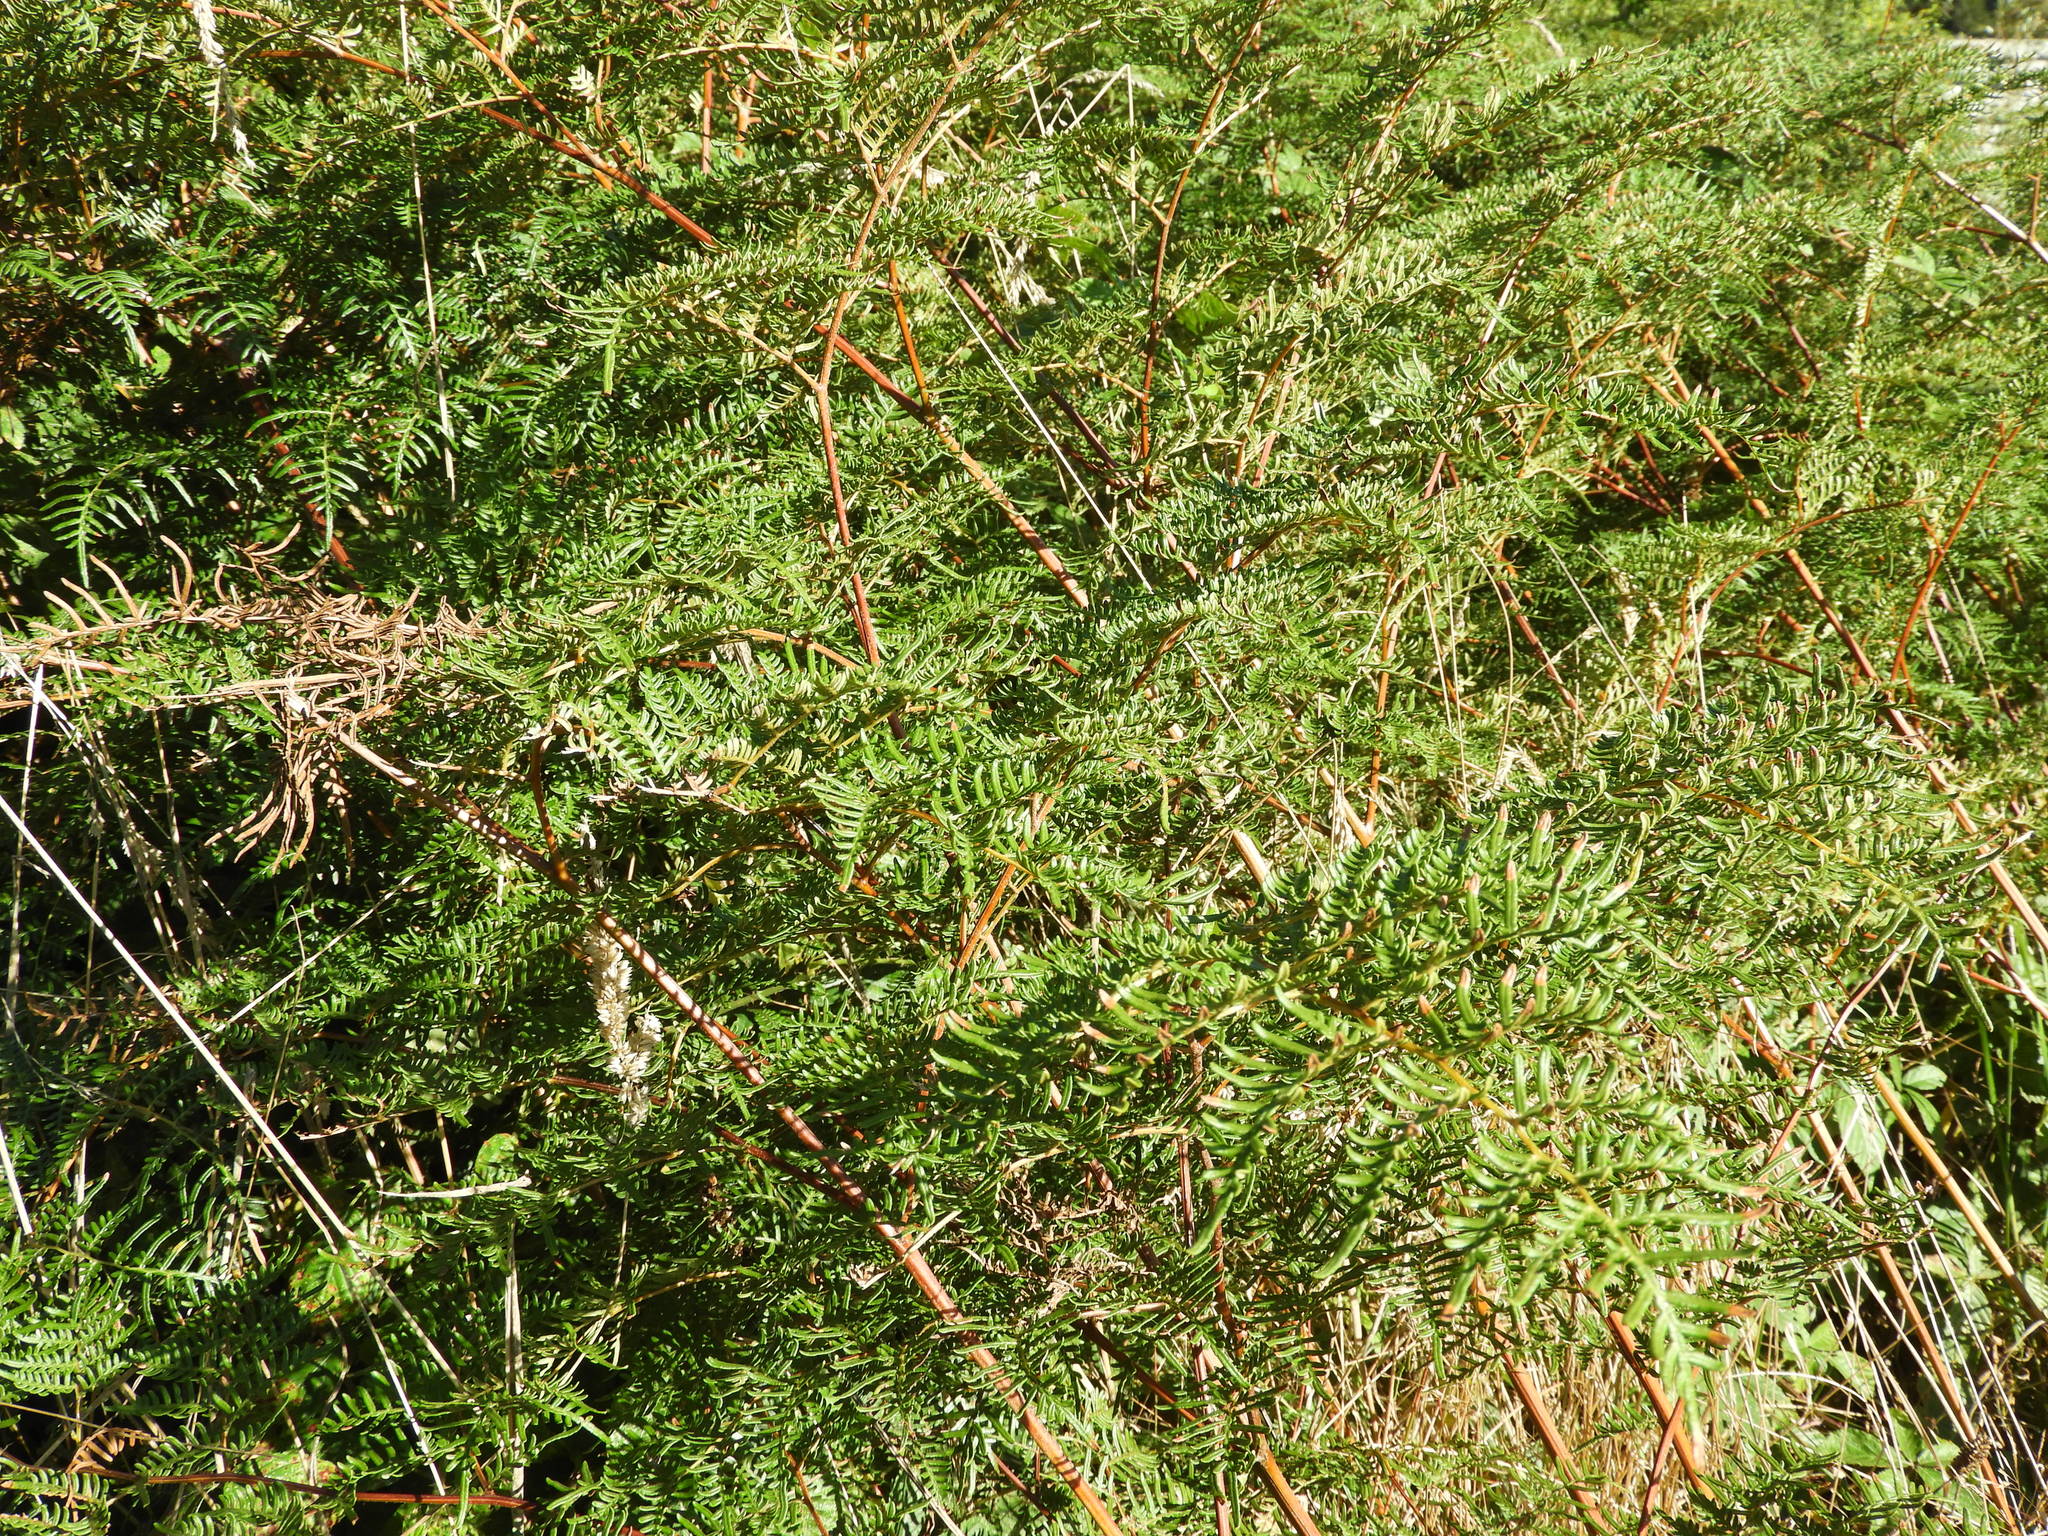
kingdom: Plantae
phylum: Tracheophyta
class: Polypodiopsida
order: Polypodiales
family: Dennstaedtiaceae
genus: Pteridium
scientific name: Pteridium esculentum
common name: Bracken fern
